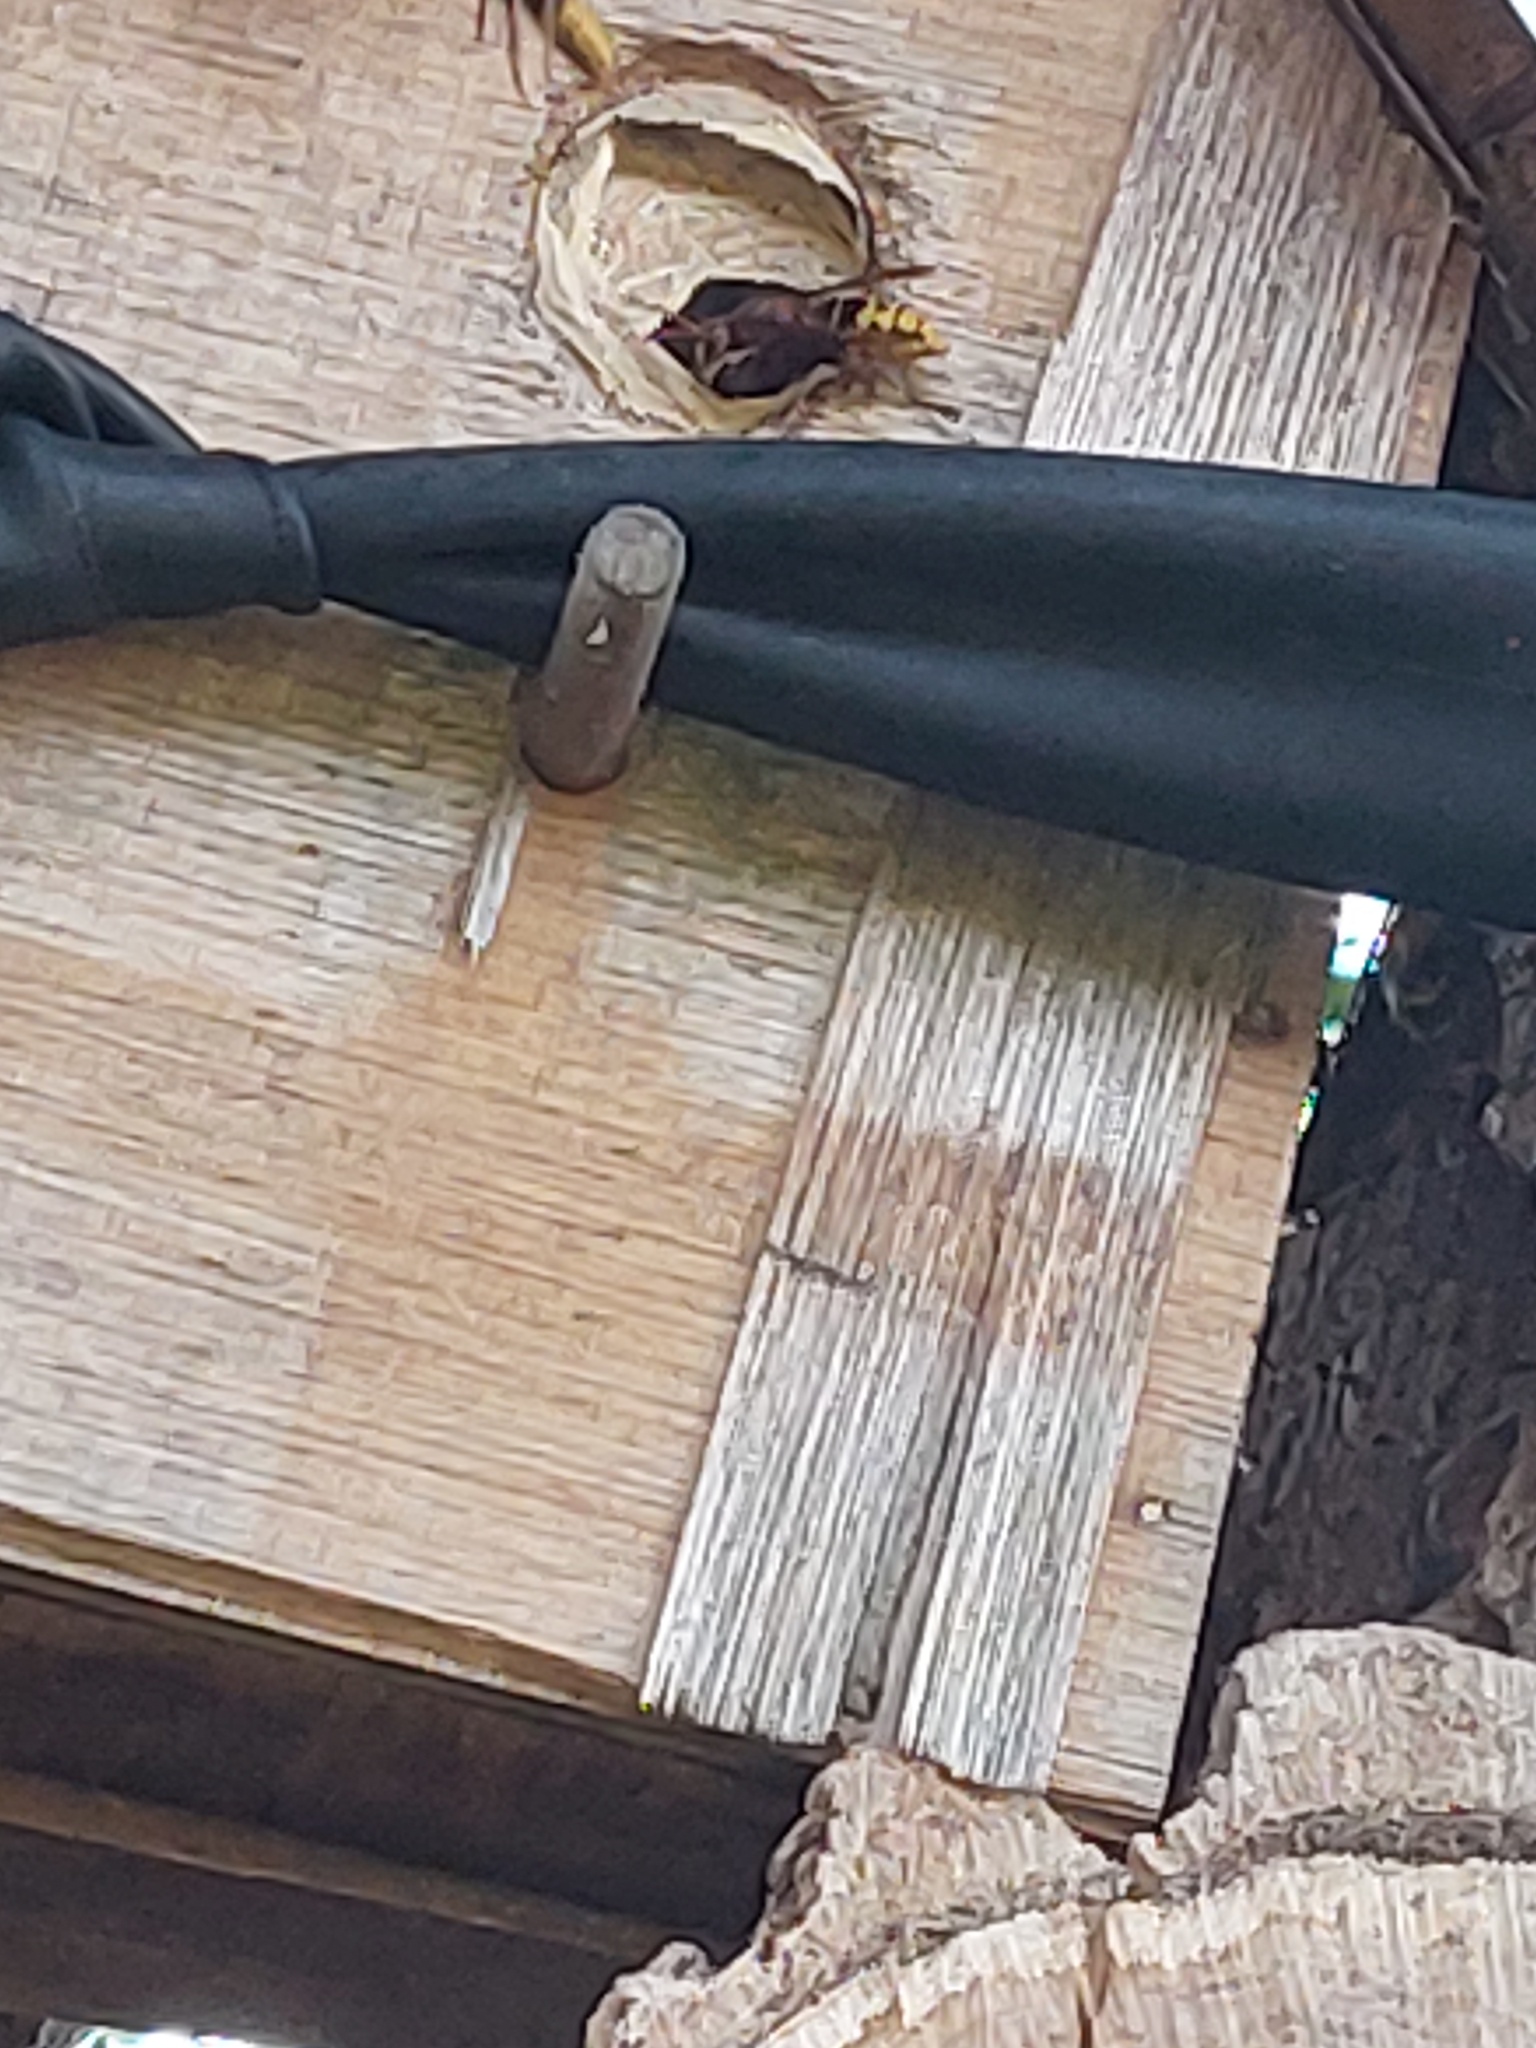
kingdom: Animalia
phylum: Arthropoda
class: Insecta
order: Hymenoptera
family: Vespidae
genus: Vespa
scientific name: Vespa crabro
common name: Hornet
